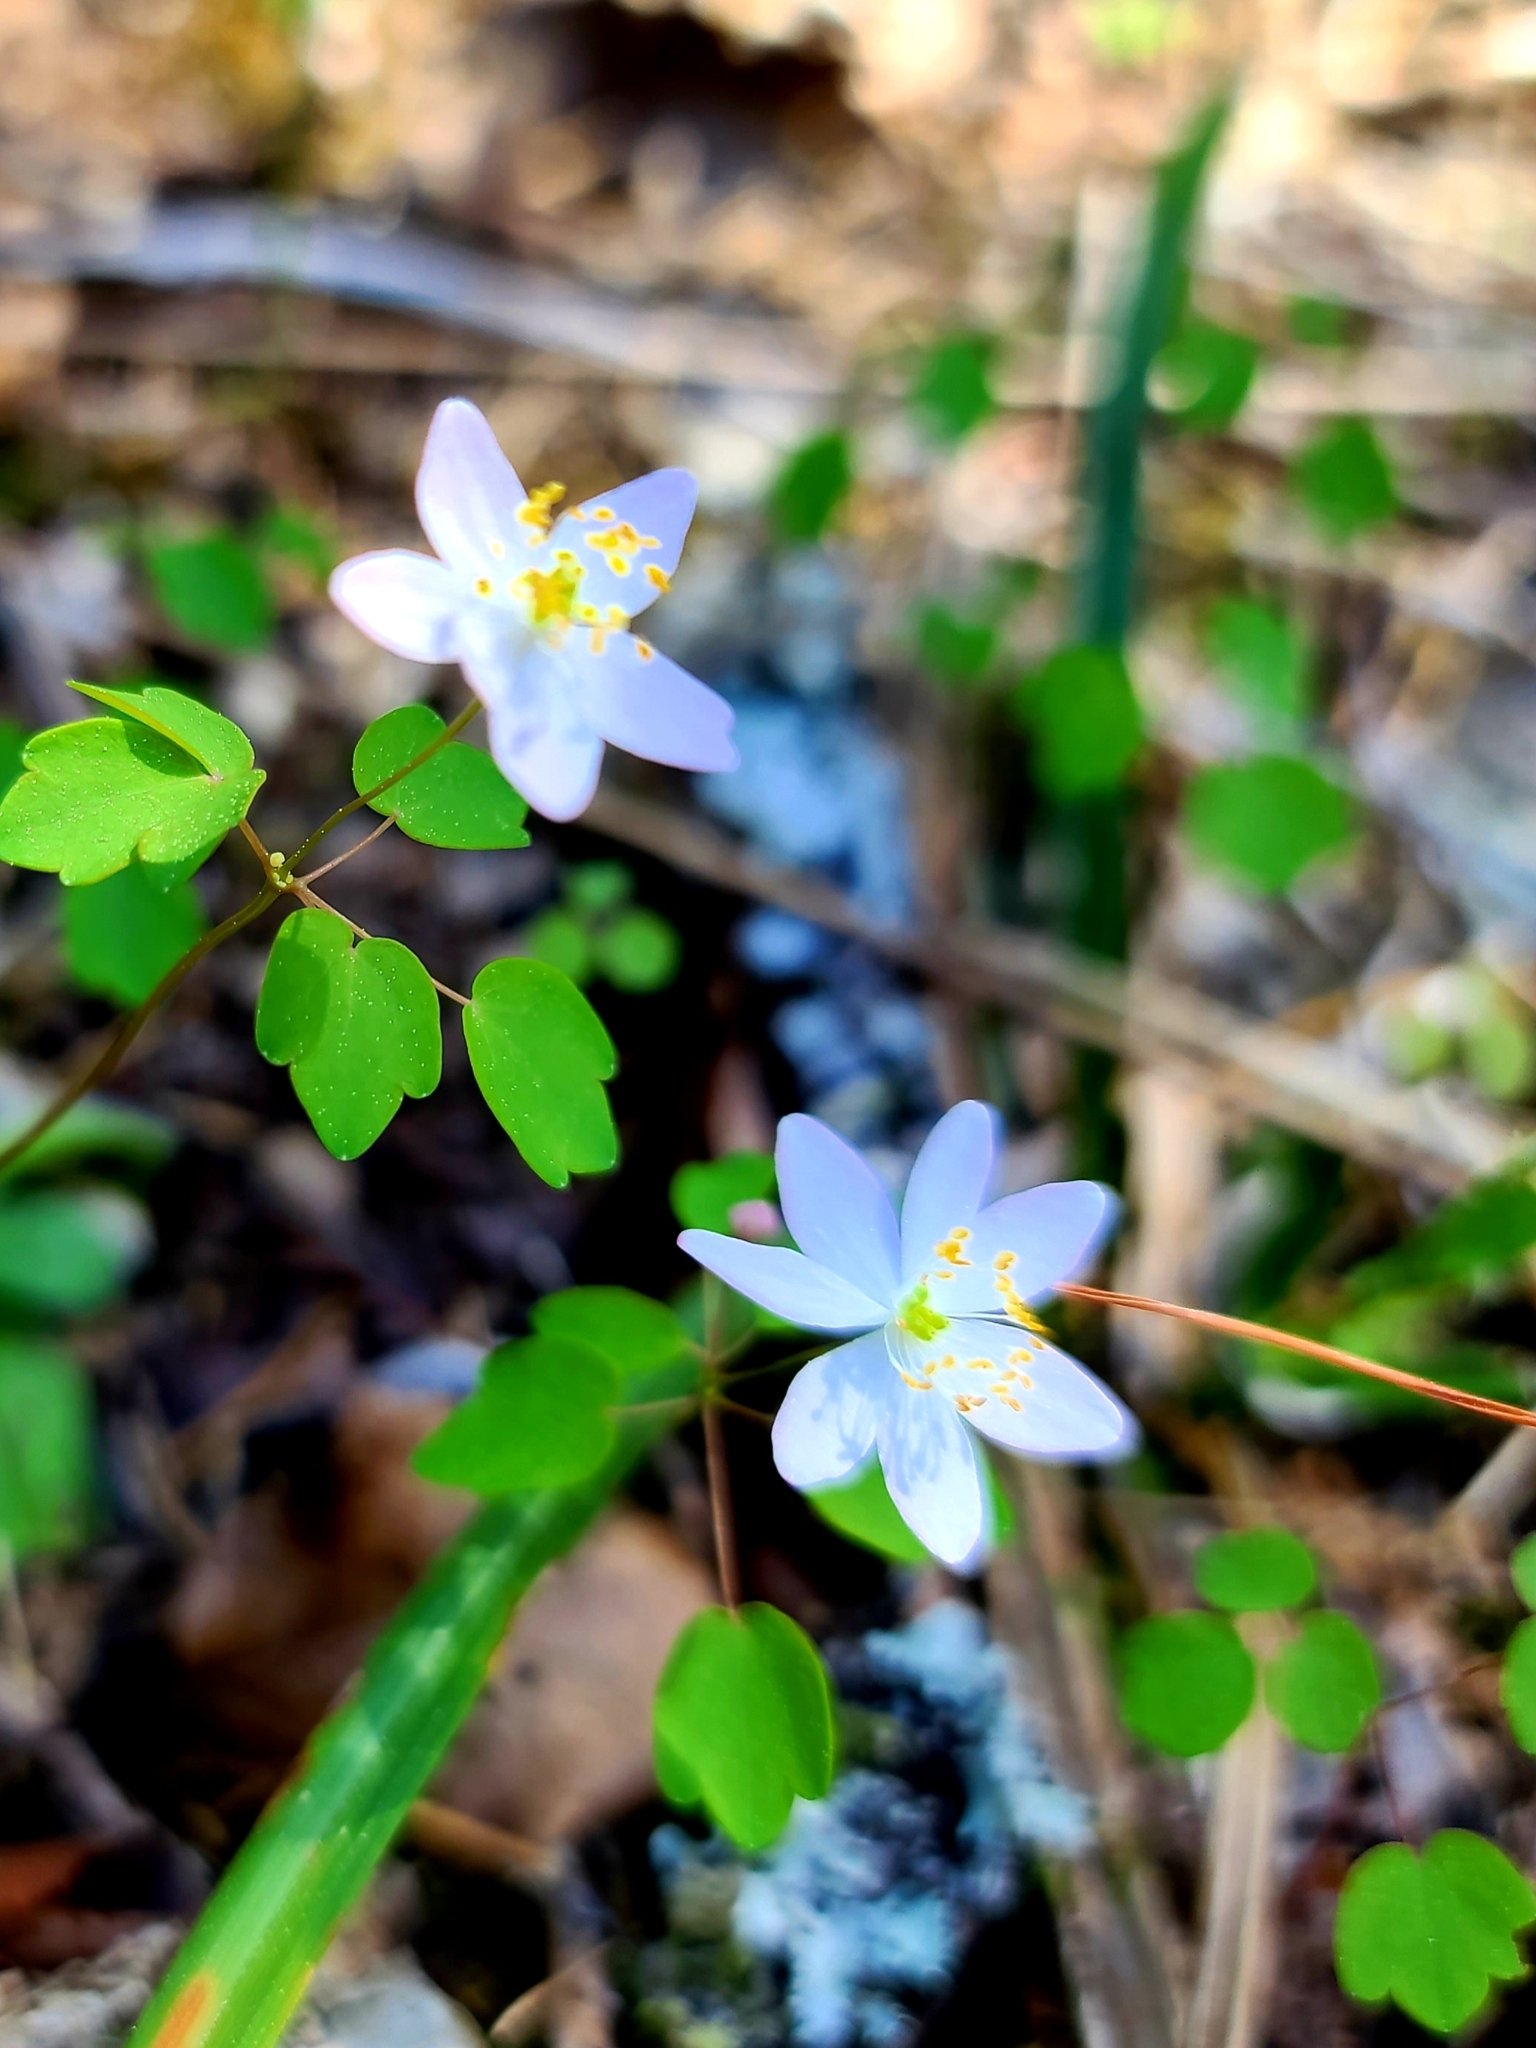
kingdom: Plantae
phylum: Tracheophyta
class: Magnoliopsida
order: Ranunculales
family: Ranunculaceae
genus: Thalictrum
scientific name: Thalictrum thalictroides
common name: Rue-anemone
